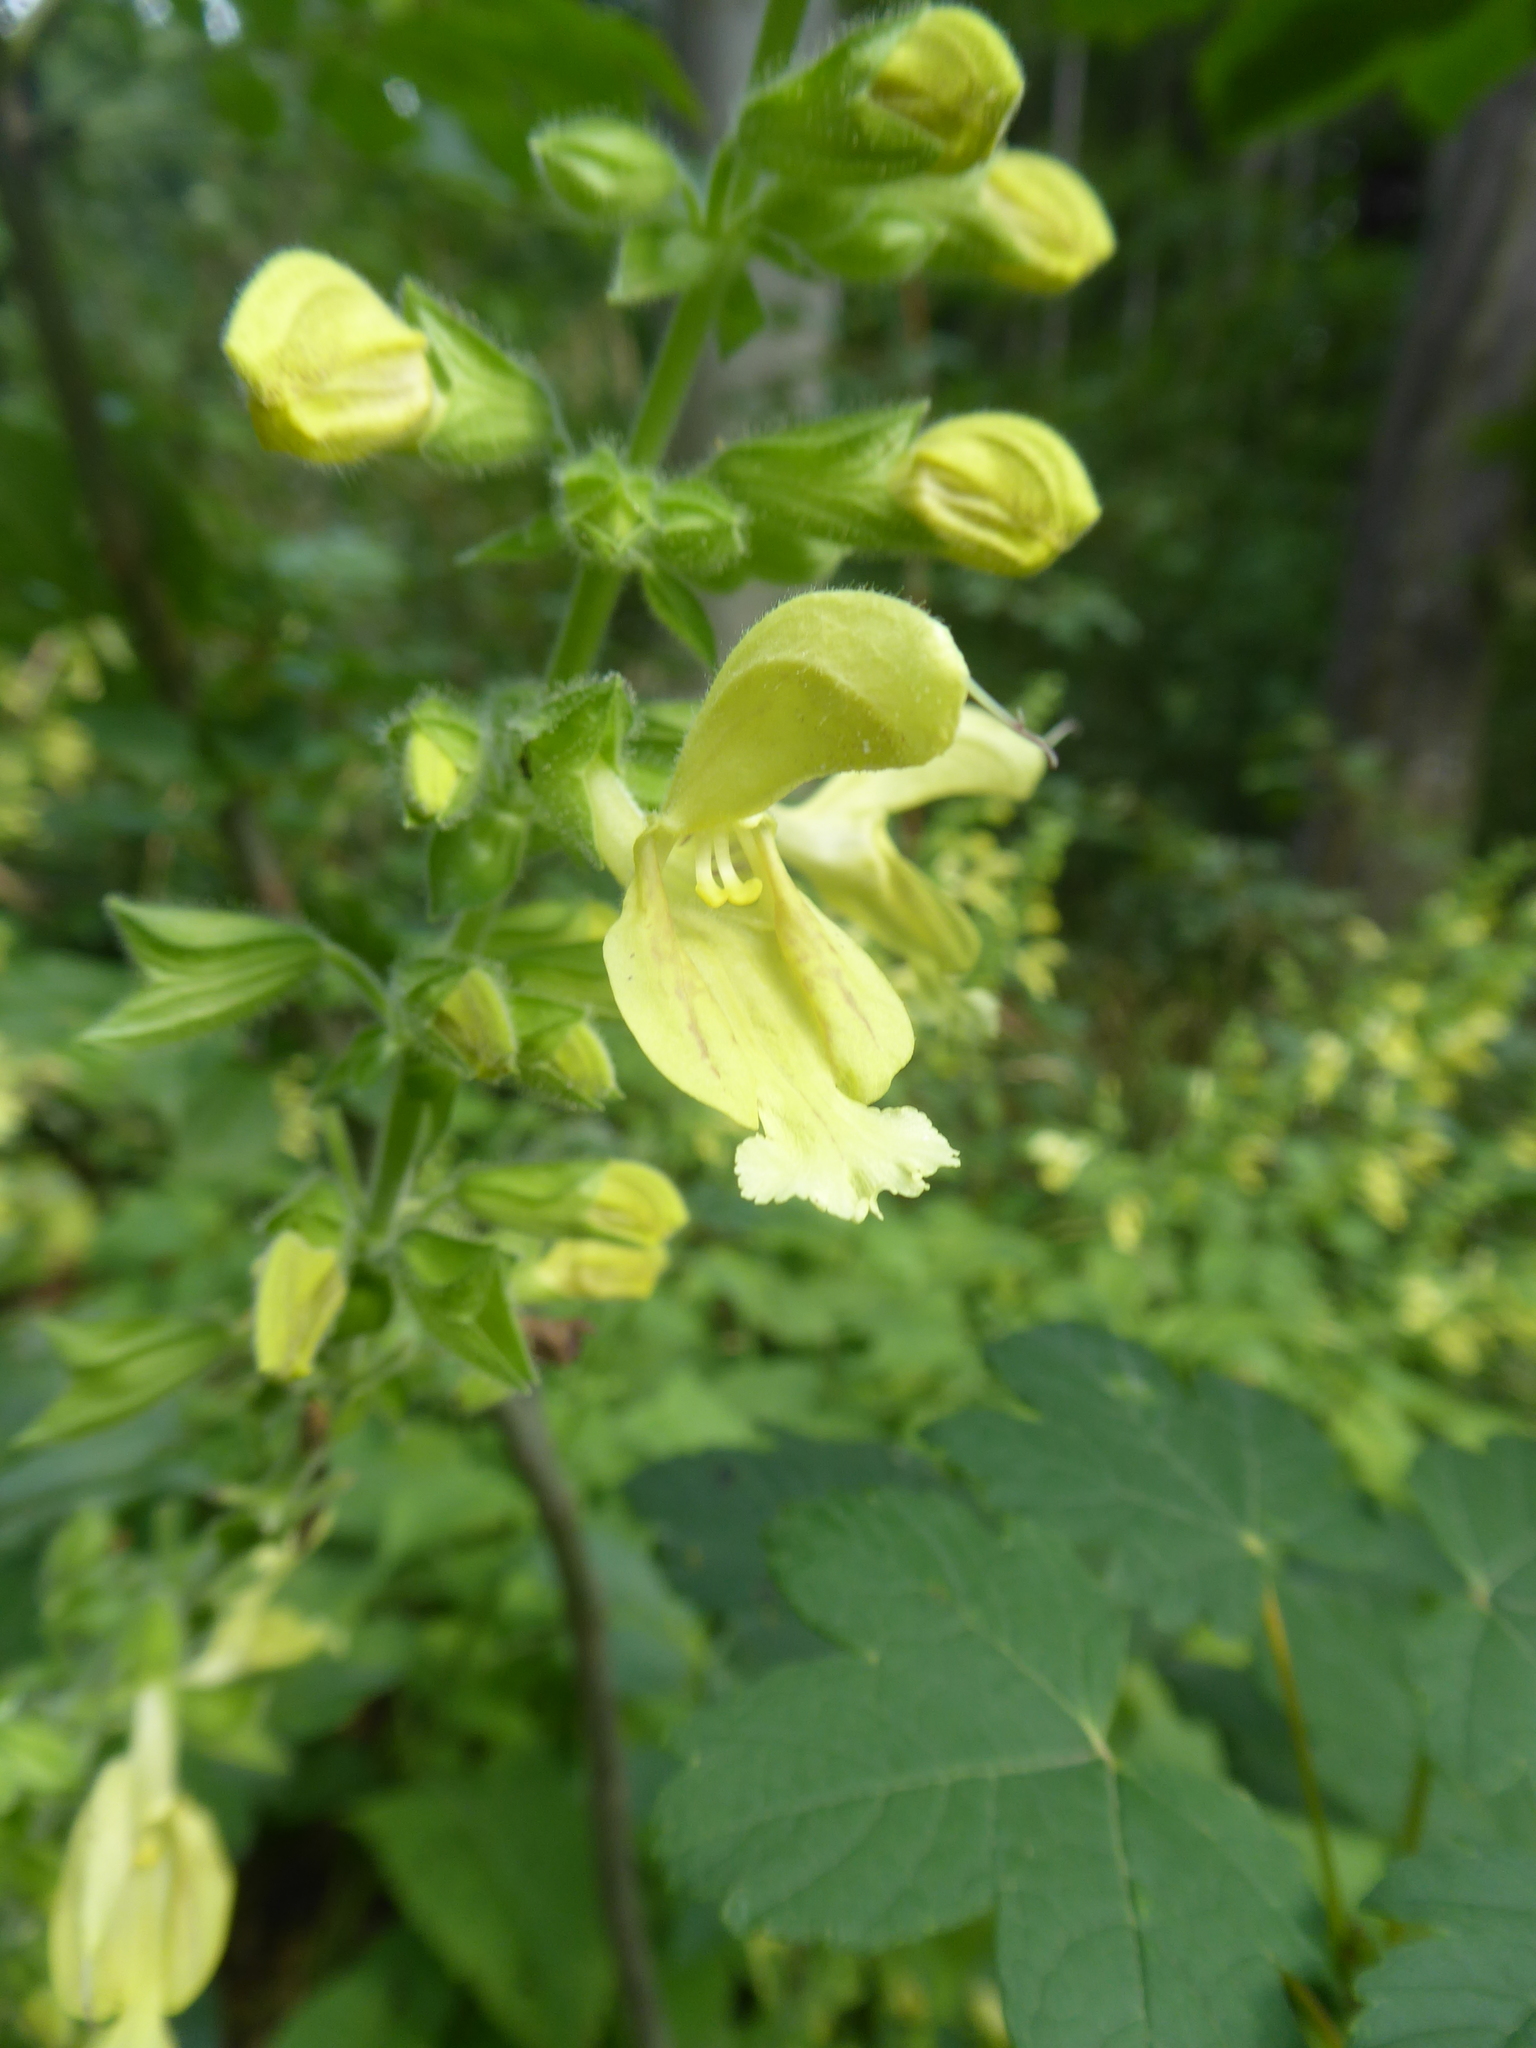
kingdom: Plantae
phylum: Tracheophyta
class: Magnoliopsida
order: Lamiales
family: Lamiaceae
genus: Salvia
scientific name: Salvia glutinosa
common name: Sticky clary
